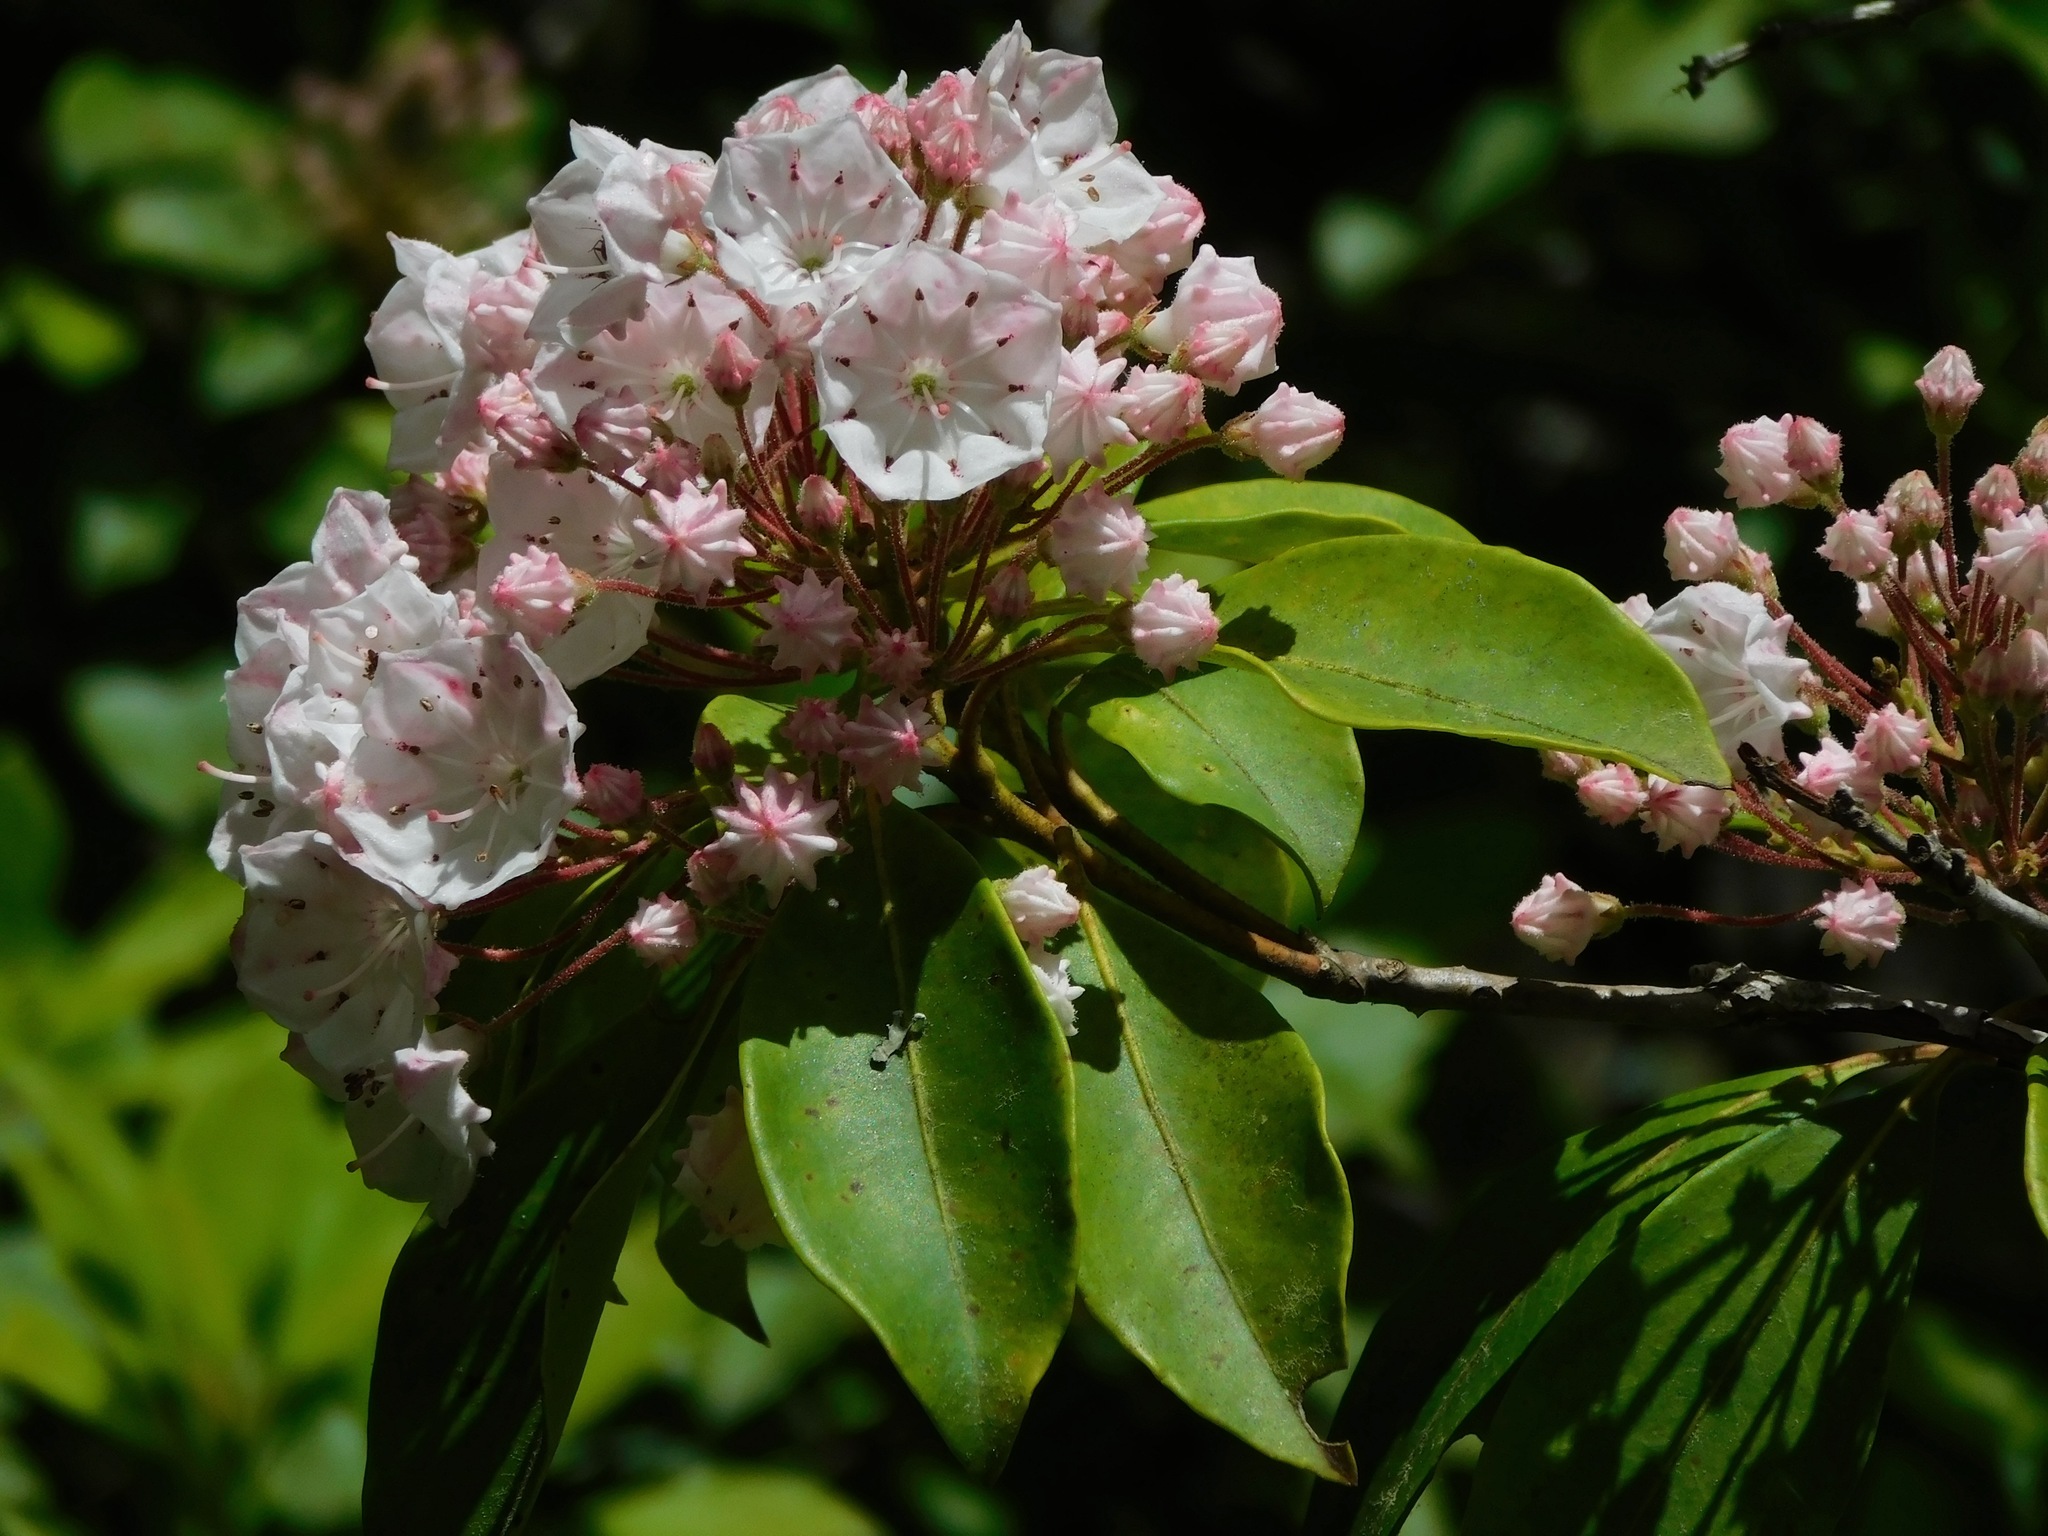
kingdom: Plantae
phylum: Tracheophyta
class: Magnoliopsida
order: Ericales
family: Ericaceae
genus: Kalmia
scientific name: Kalmia latifolia
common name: Mountain-laurel
